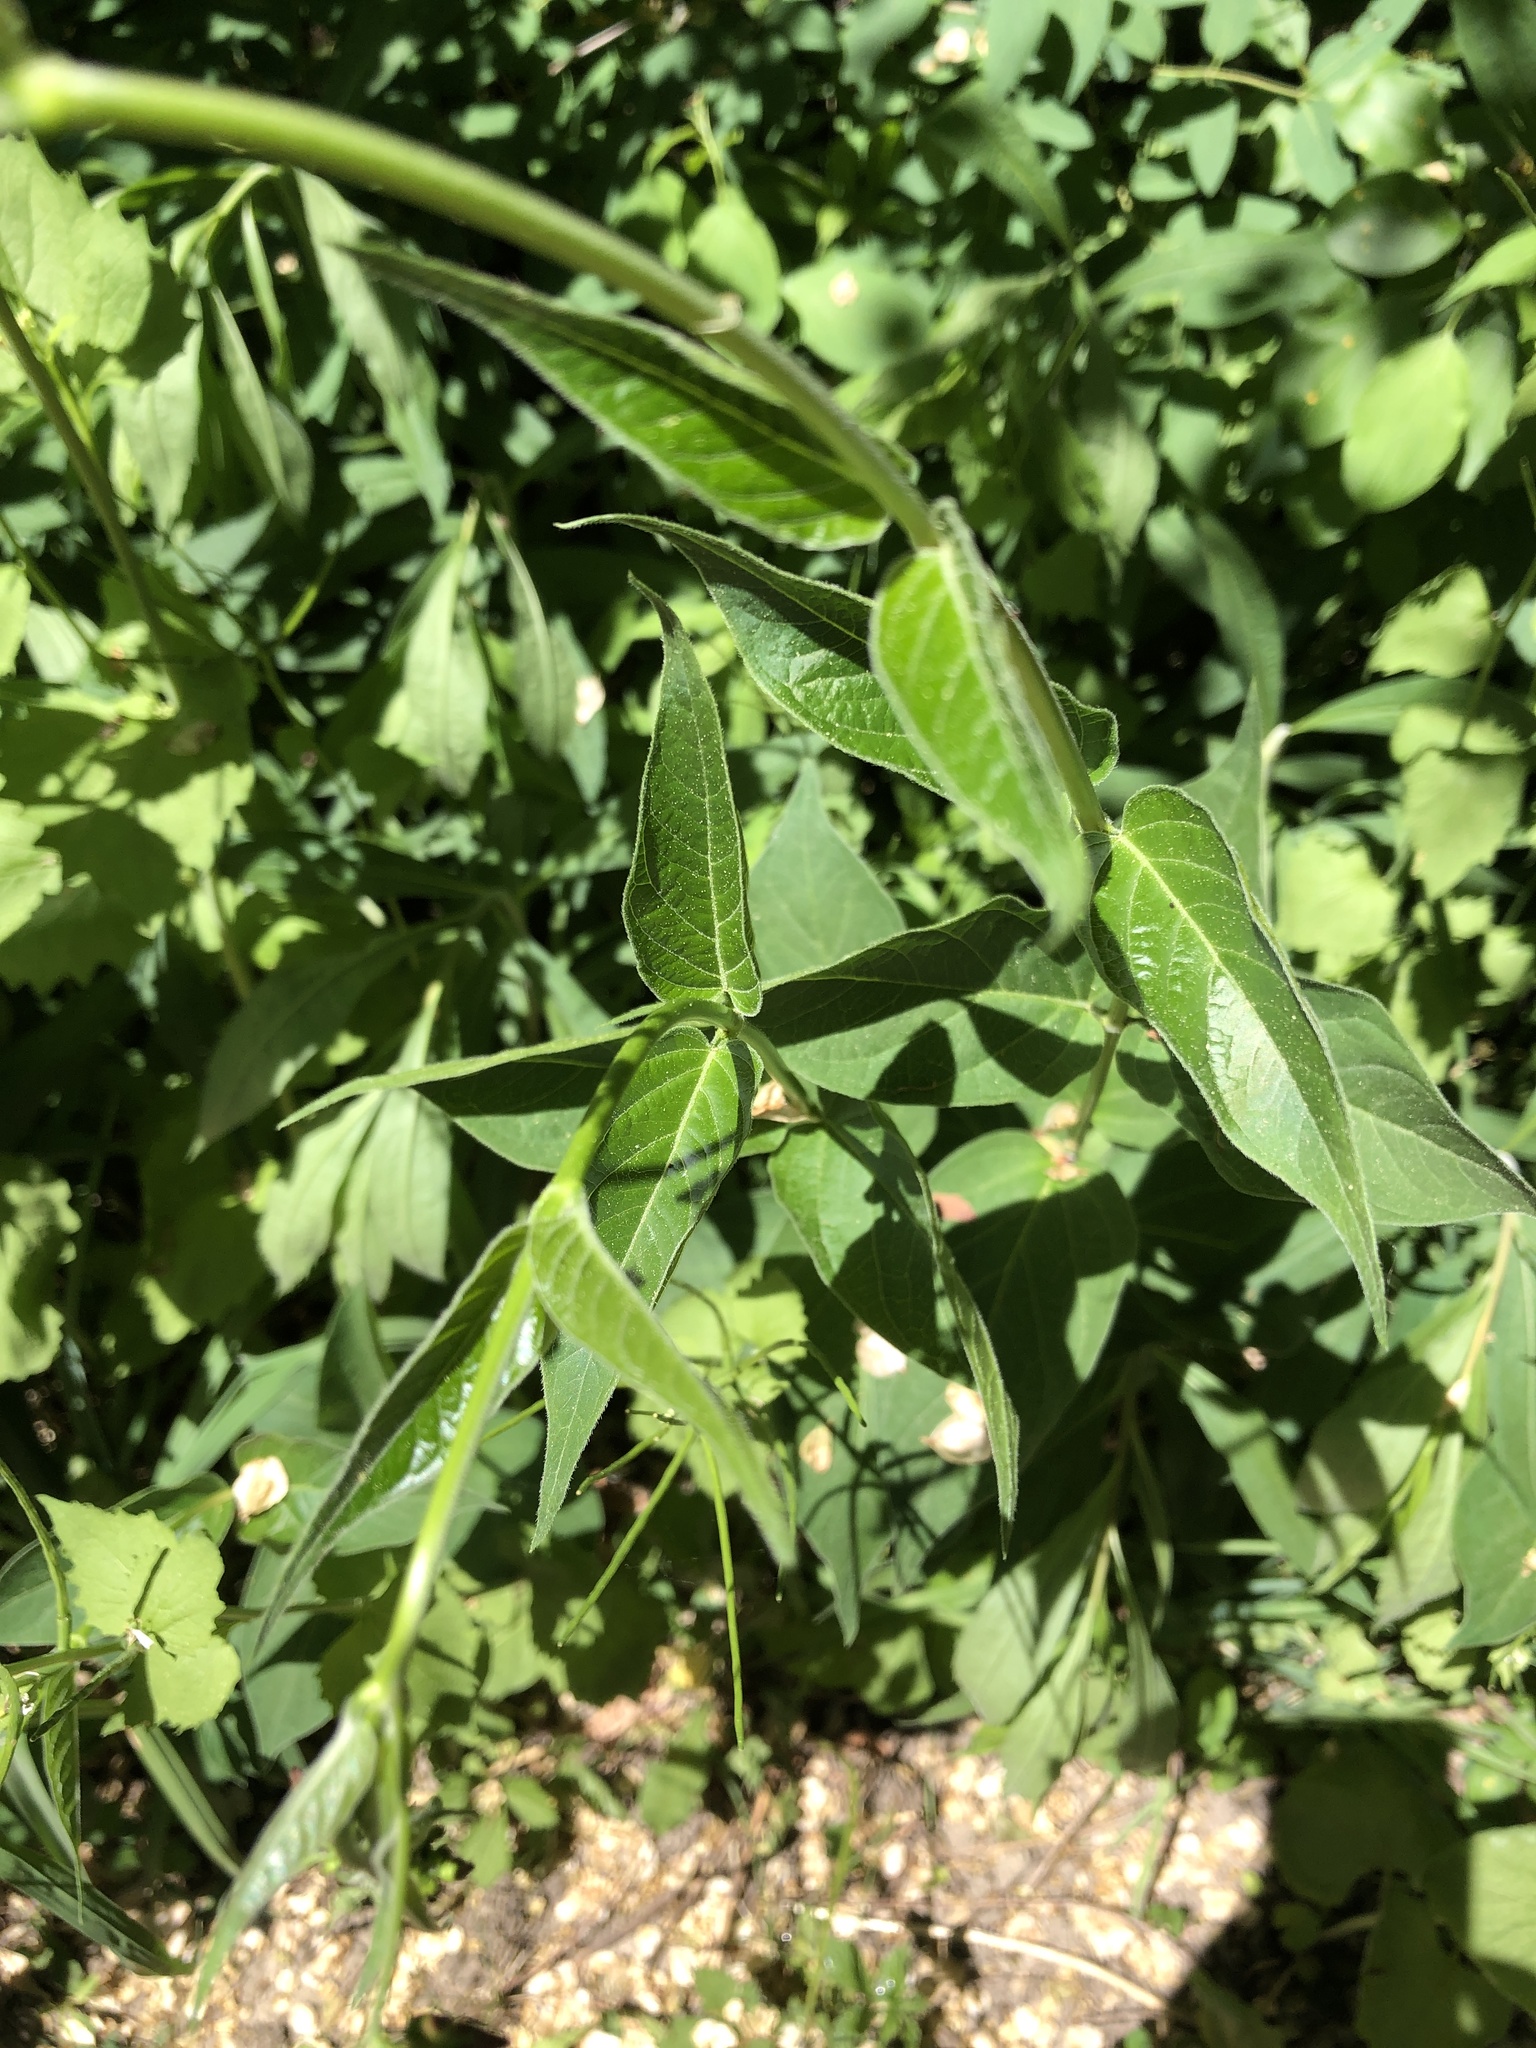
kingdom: Plantae
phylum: Tracheophyta
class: Magnoliopsida
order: Gentianales
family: Apocynaceae
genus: Vincetoxicum
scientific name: Vincetoxicum rossicum
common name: Dog-strangling vine
